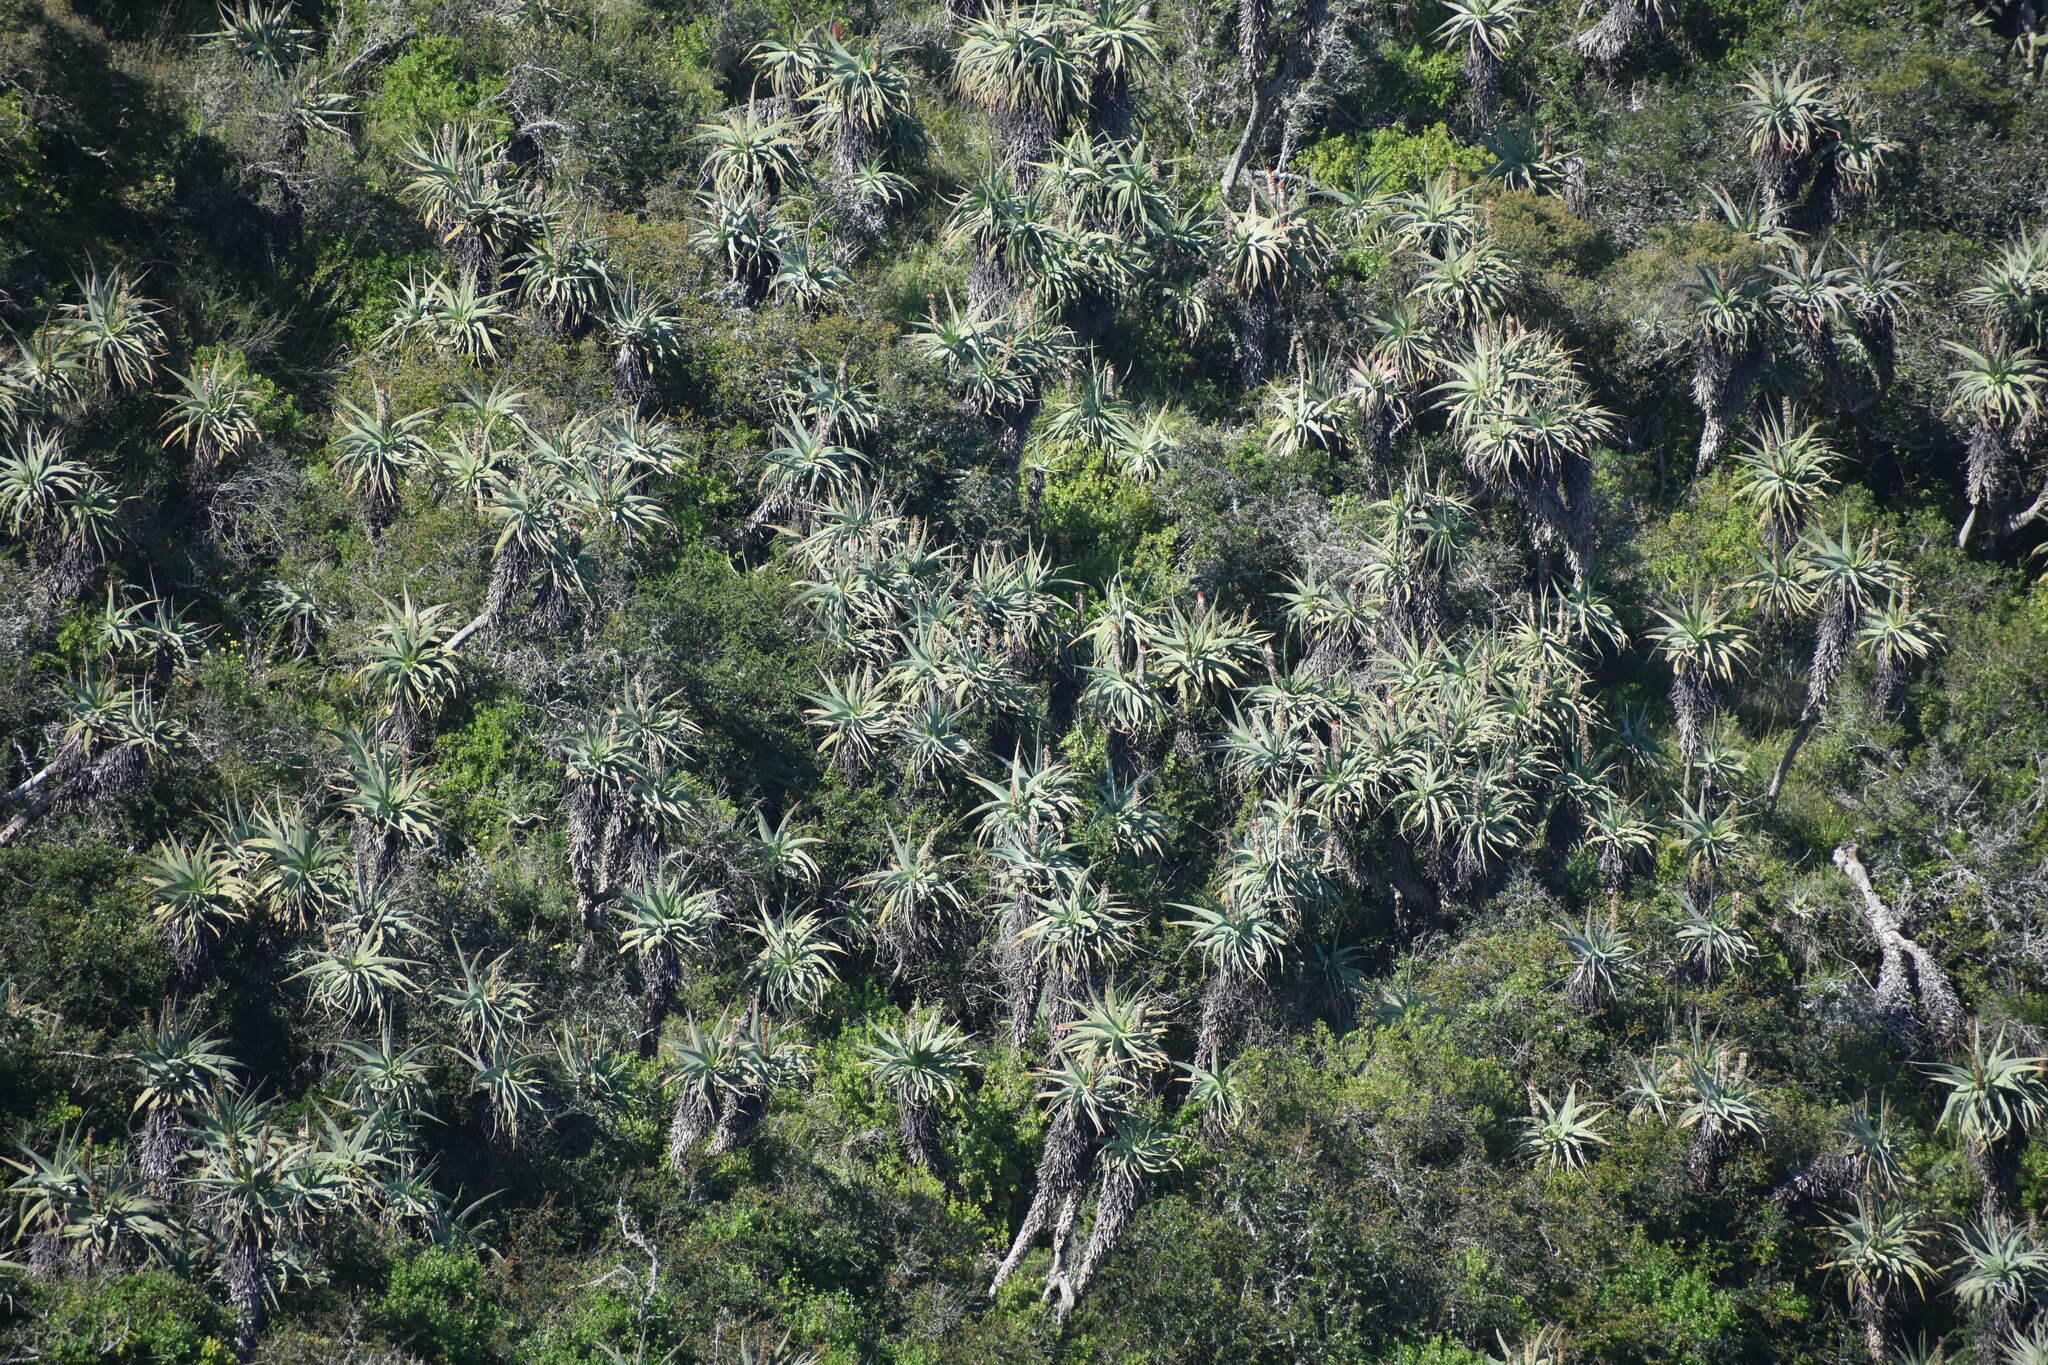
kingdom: Plantae
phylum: Tracheophyta
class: Liliopsida
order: Asparagales
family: Asphodelaceae
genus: Aloe
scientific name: Aloe speciosa
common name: Beautiful aloe
